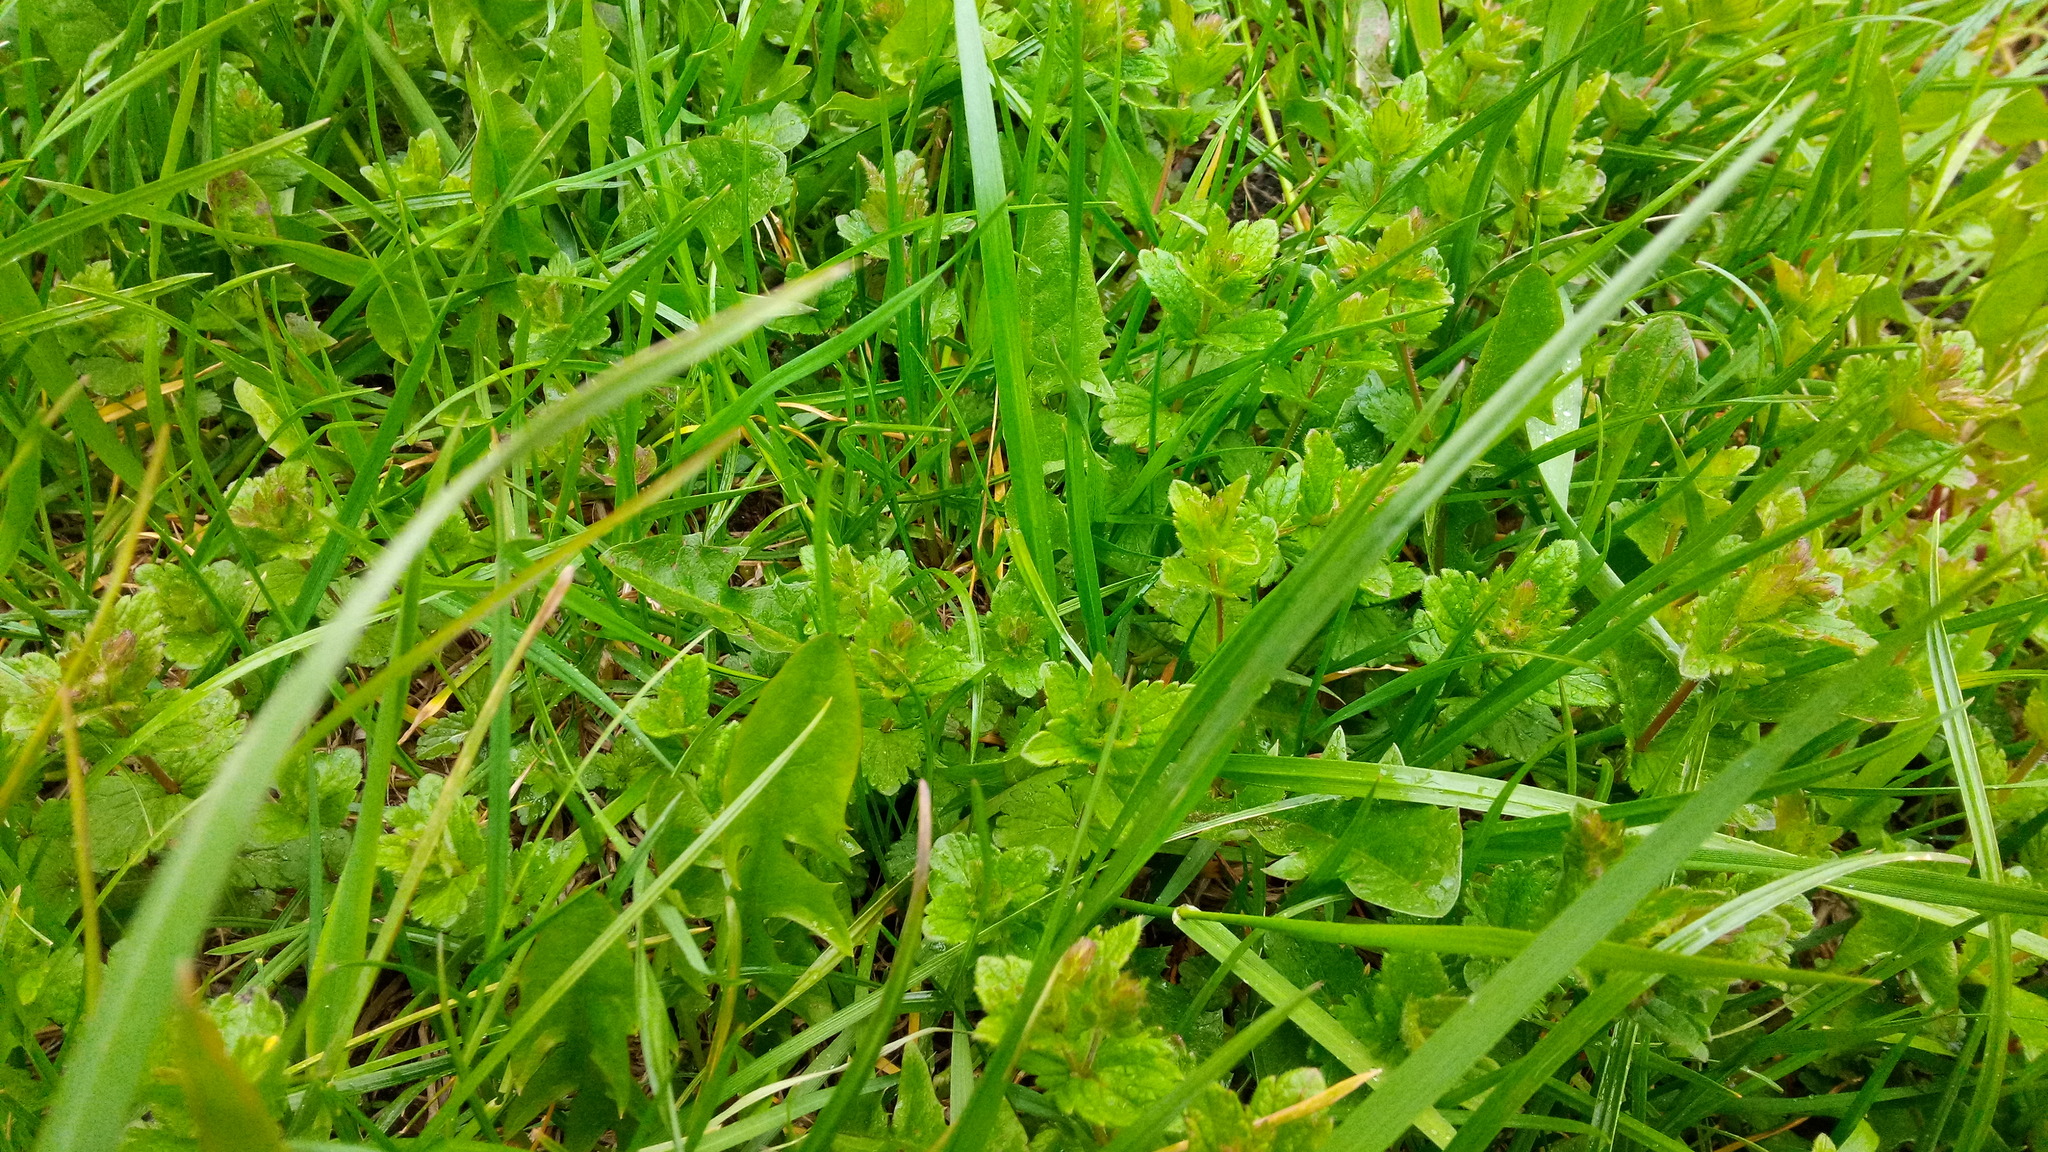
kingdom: Plantae
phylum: Tracheophyta
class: Magnoliopsida
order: Lamiales
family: Plantaginaceae
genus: Veronica
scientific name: Veronica chamaedrys
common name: Germander speedwell
